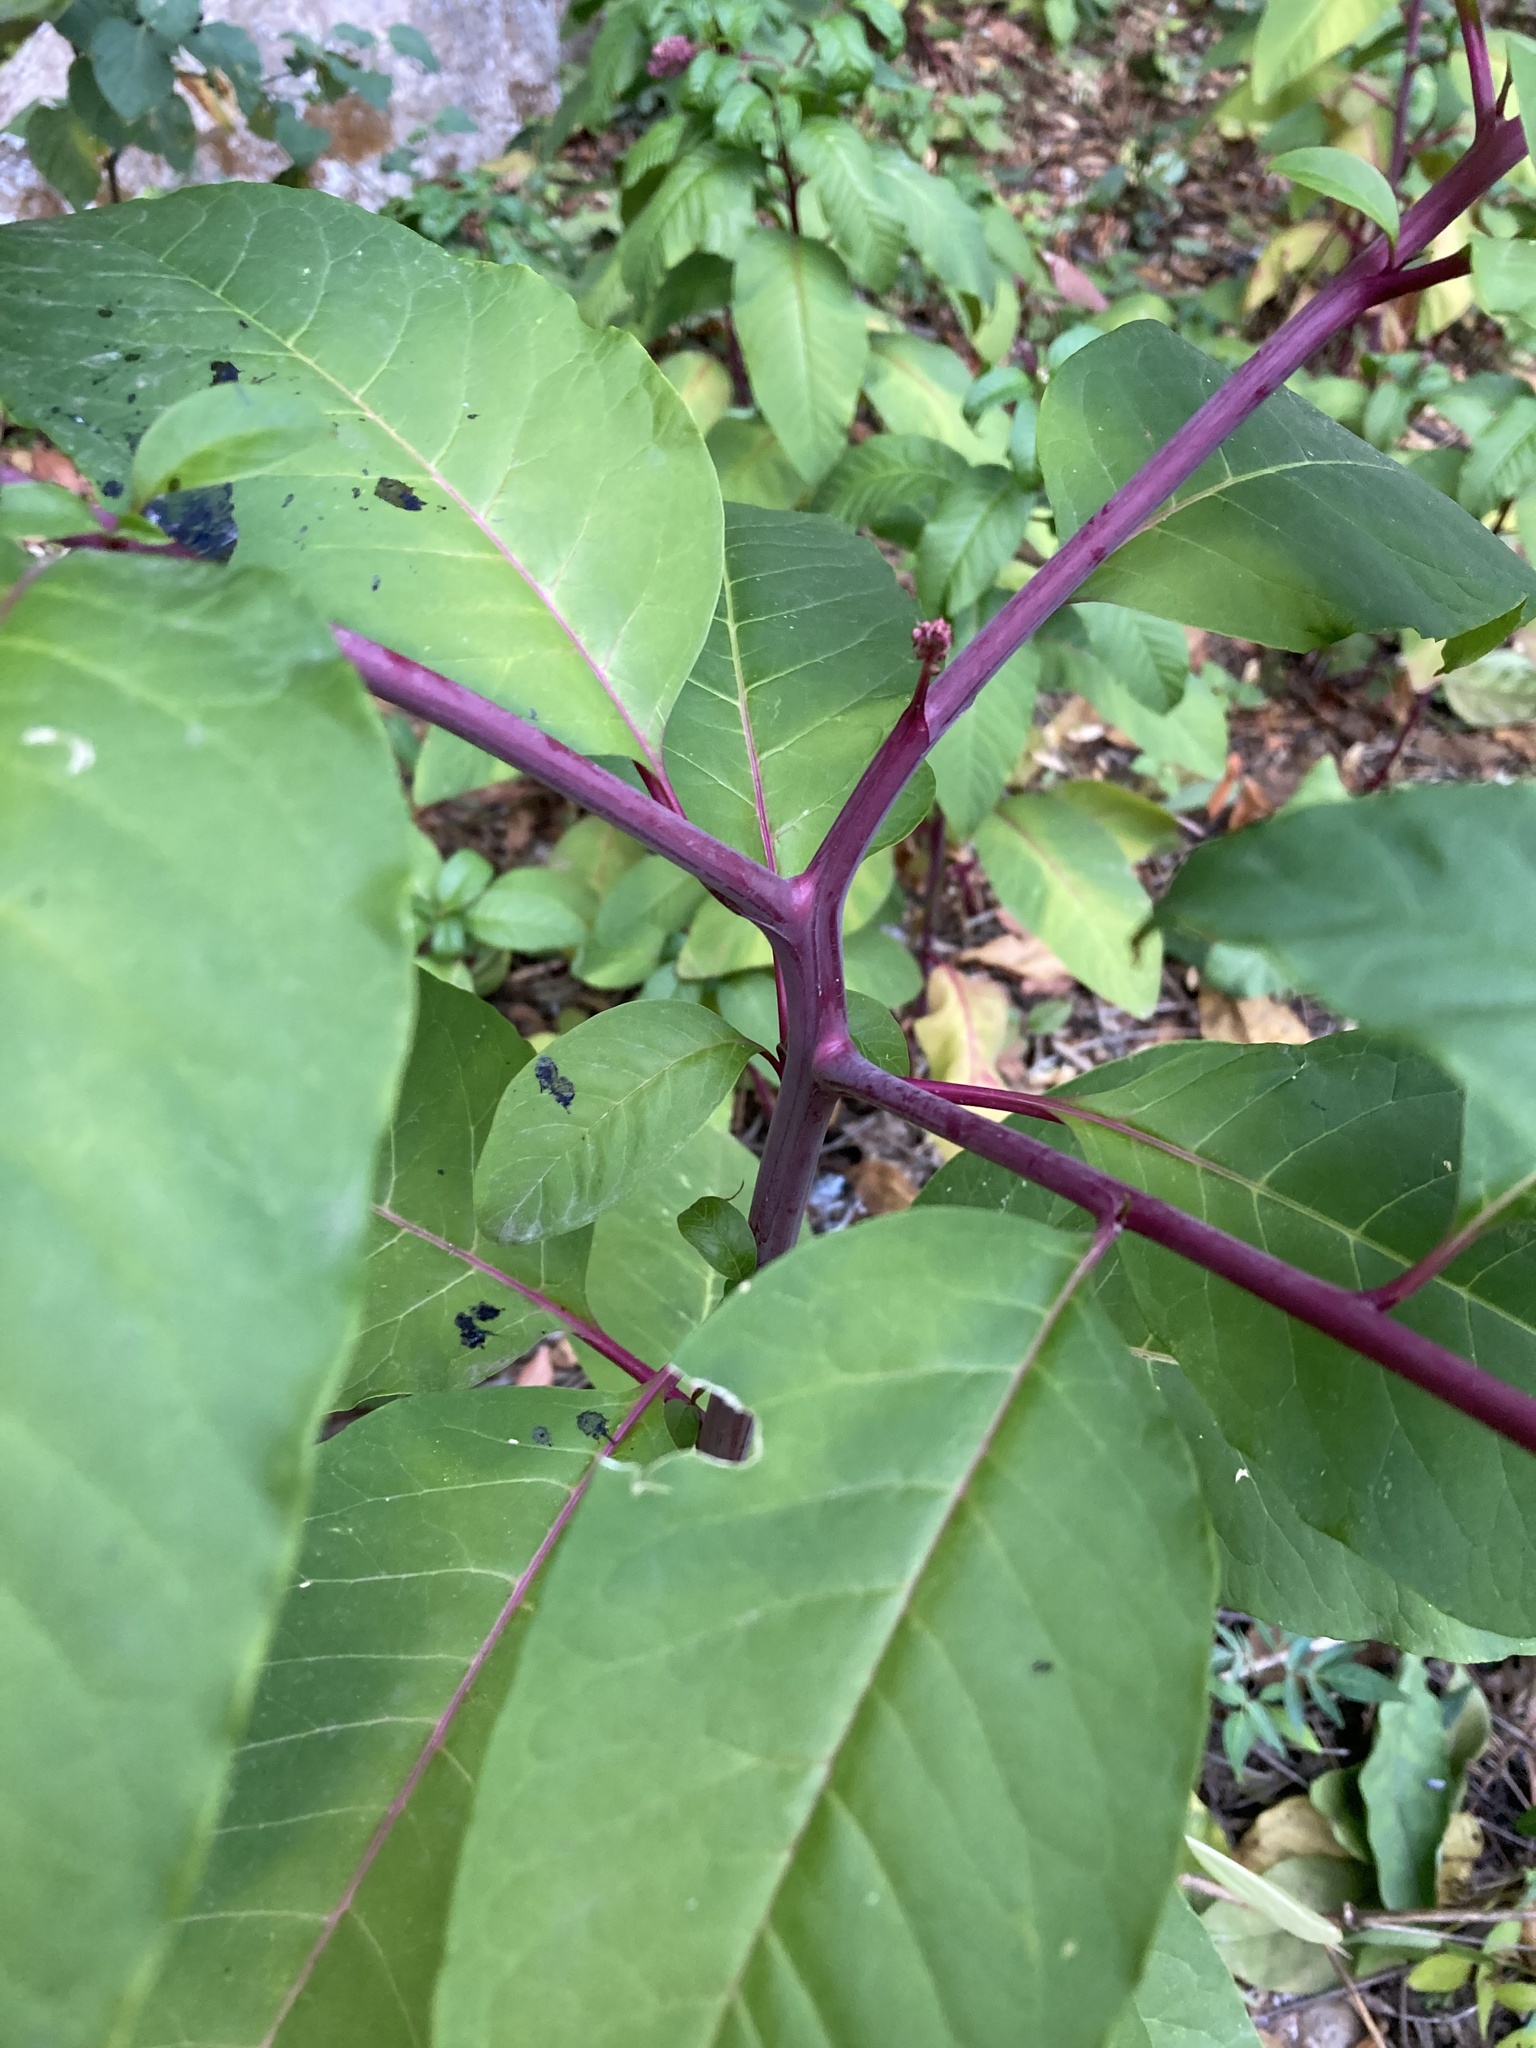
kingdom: Plantae
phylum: Tracheophyta
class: Magnoliopsida
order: Caryophyllales
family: Phytolaccaceae
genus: Phytolacca
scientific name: Phytolacca americana
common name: American pokeweed
